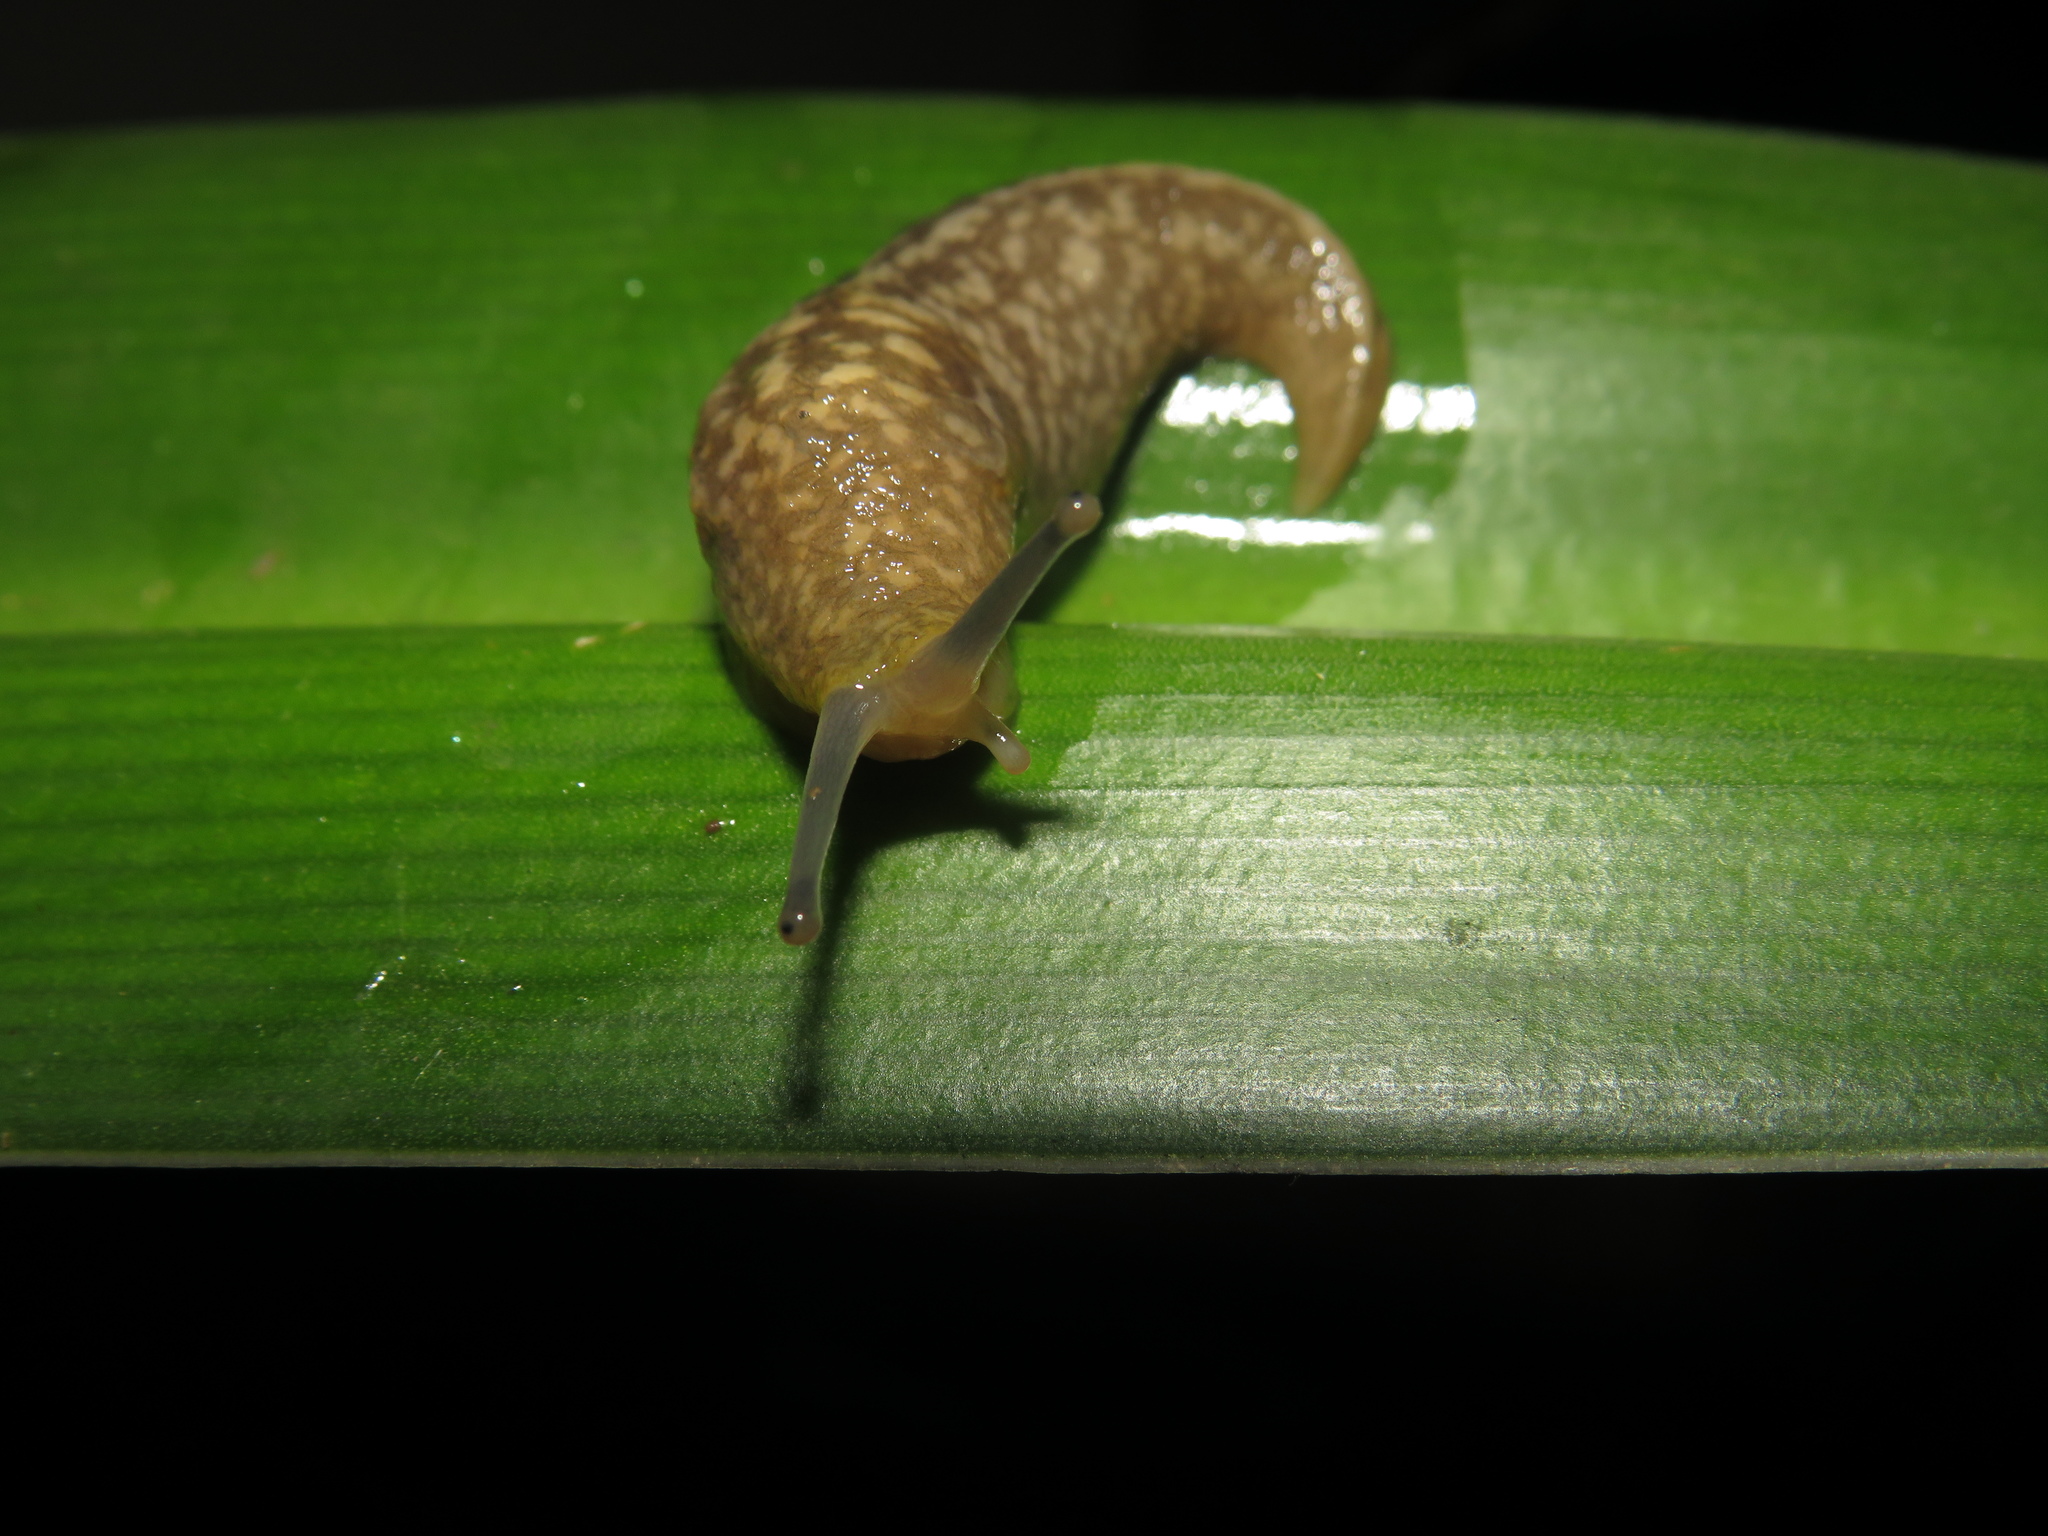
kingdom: Animalia
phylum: Mollusca
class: Gastropoda
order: Stylommatophora
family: Limacidae
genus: Limacus
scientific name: Limacus flavus
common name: Yellow gardenslug
